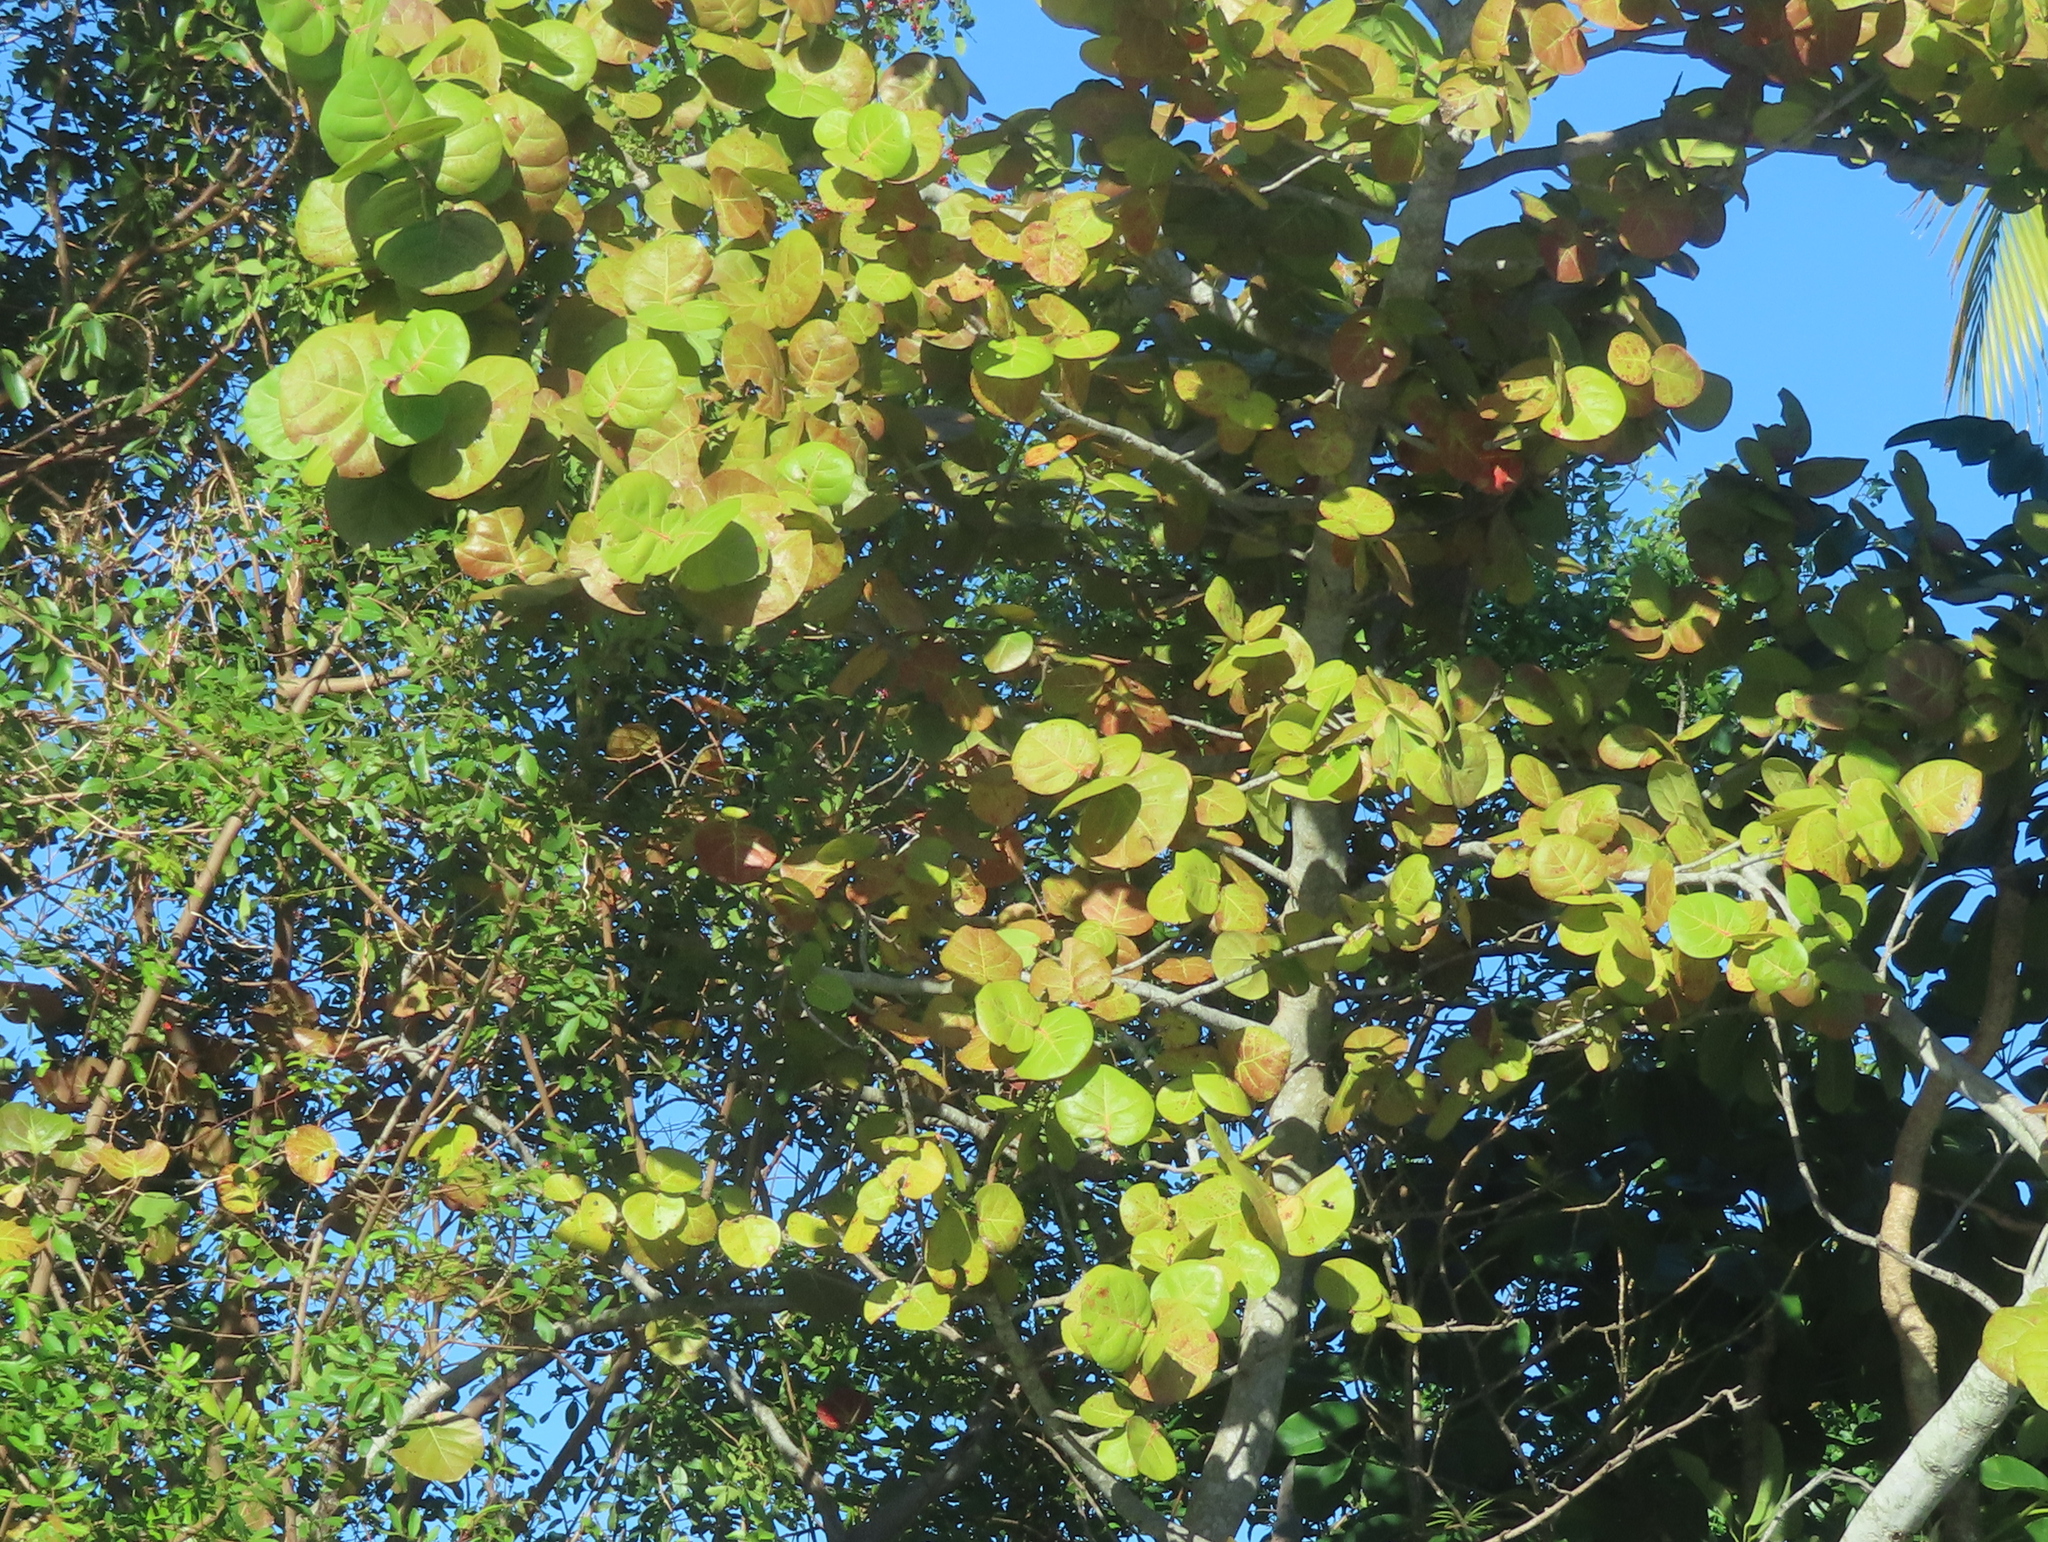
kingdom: Plantae
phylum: Tracheophyta
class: Magnoliopsida
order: Caryophyllales
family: Polygonaceae
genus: Coccoloba
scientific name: Coccoloba uvifera
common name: Seagrape
